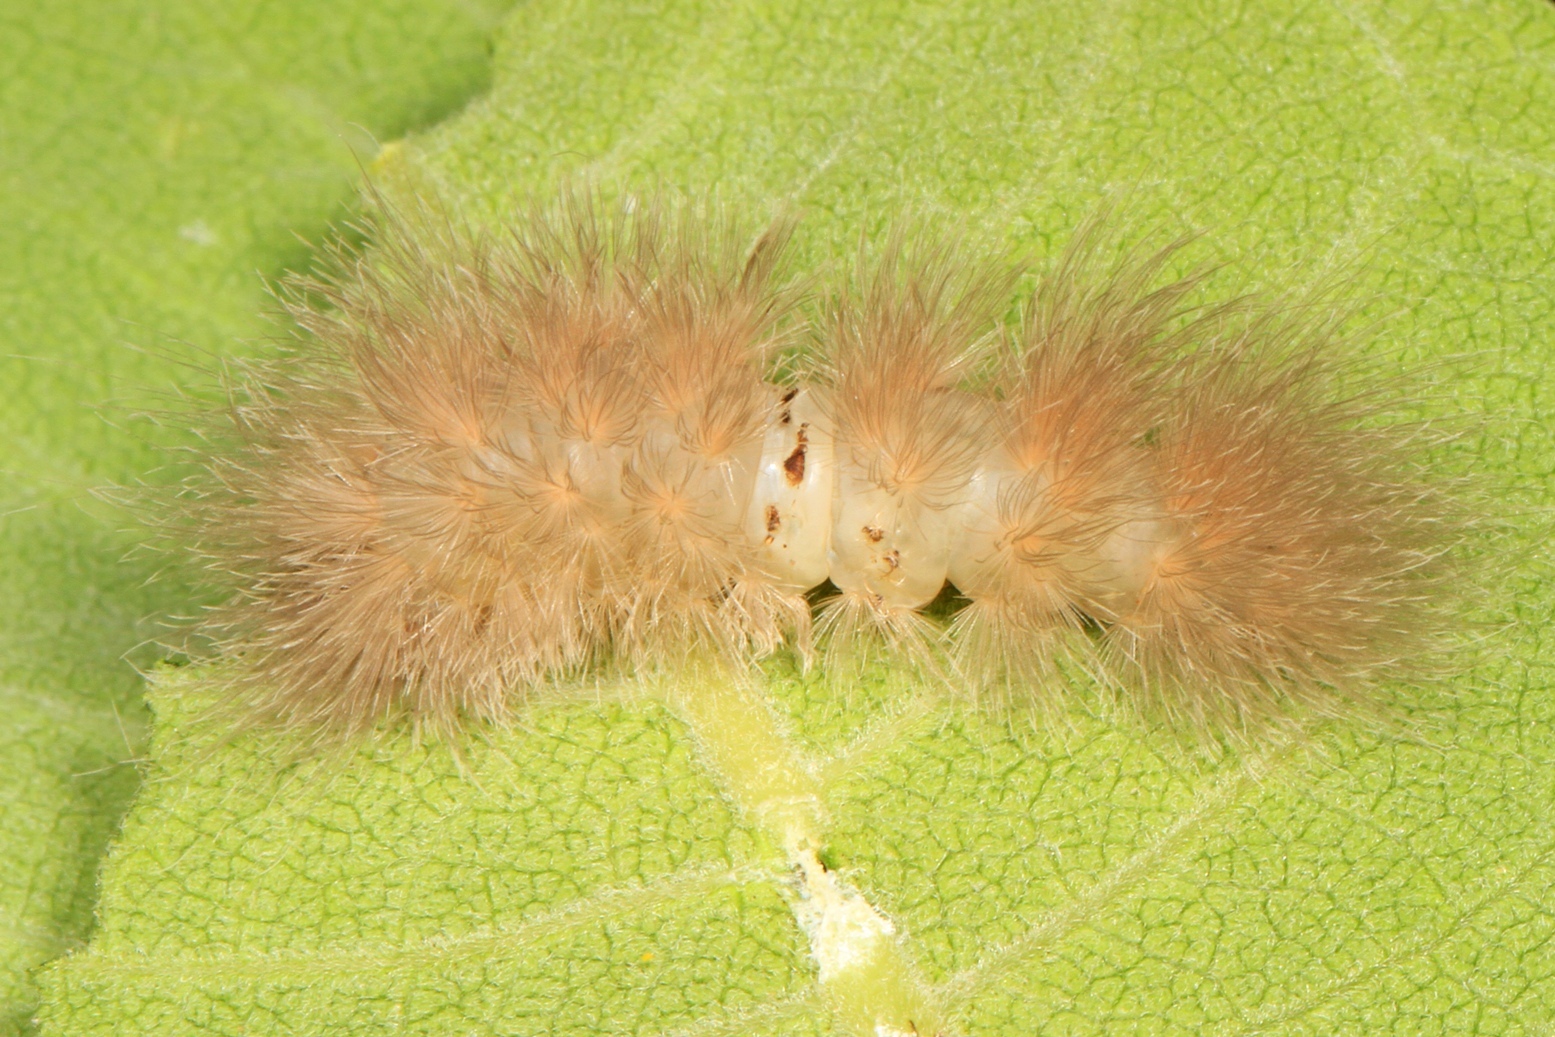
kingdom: Animalia
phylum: Arthropoda
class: Insecta
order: Lepidoptera
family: Erebidae
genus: Cycnia
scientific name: Cycnia tenera
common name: Delicate cycnia moth
